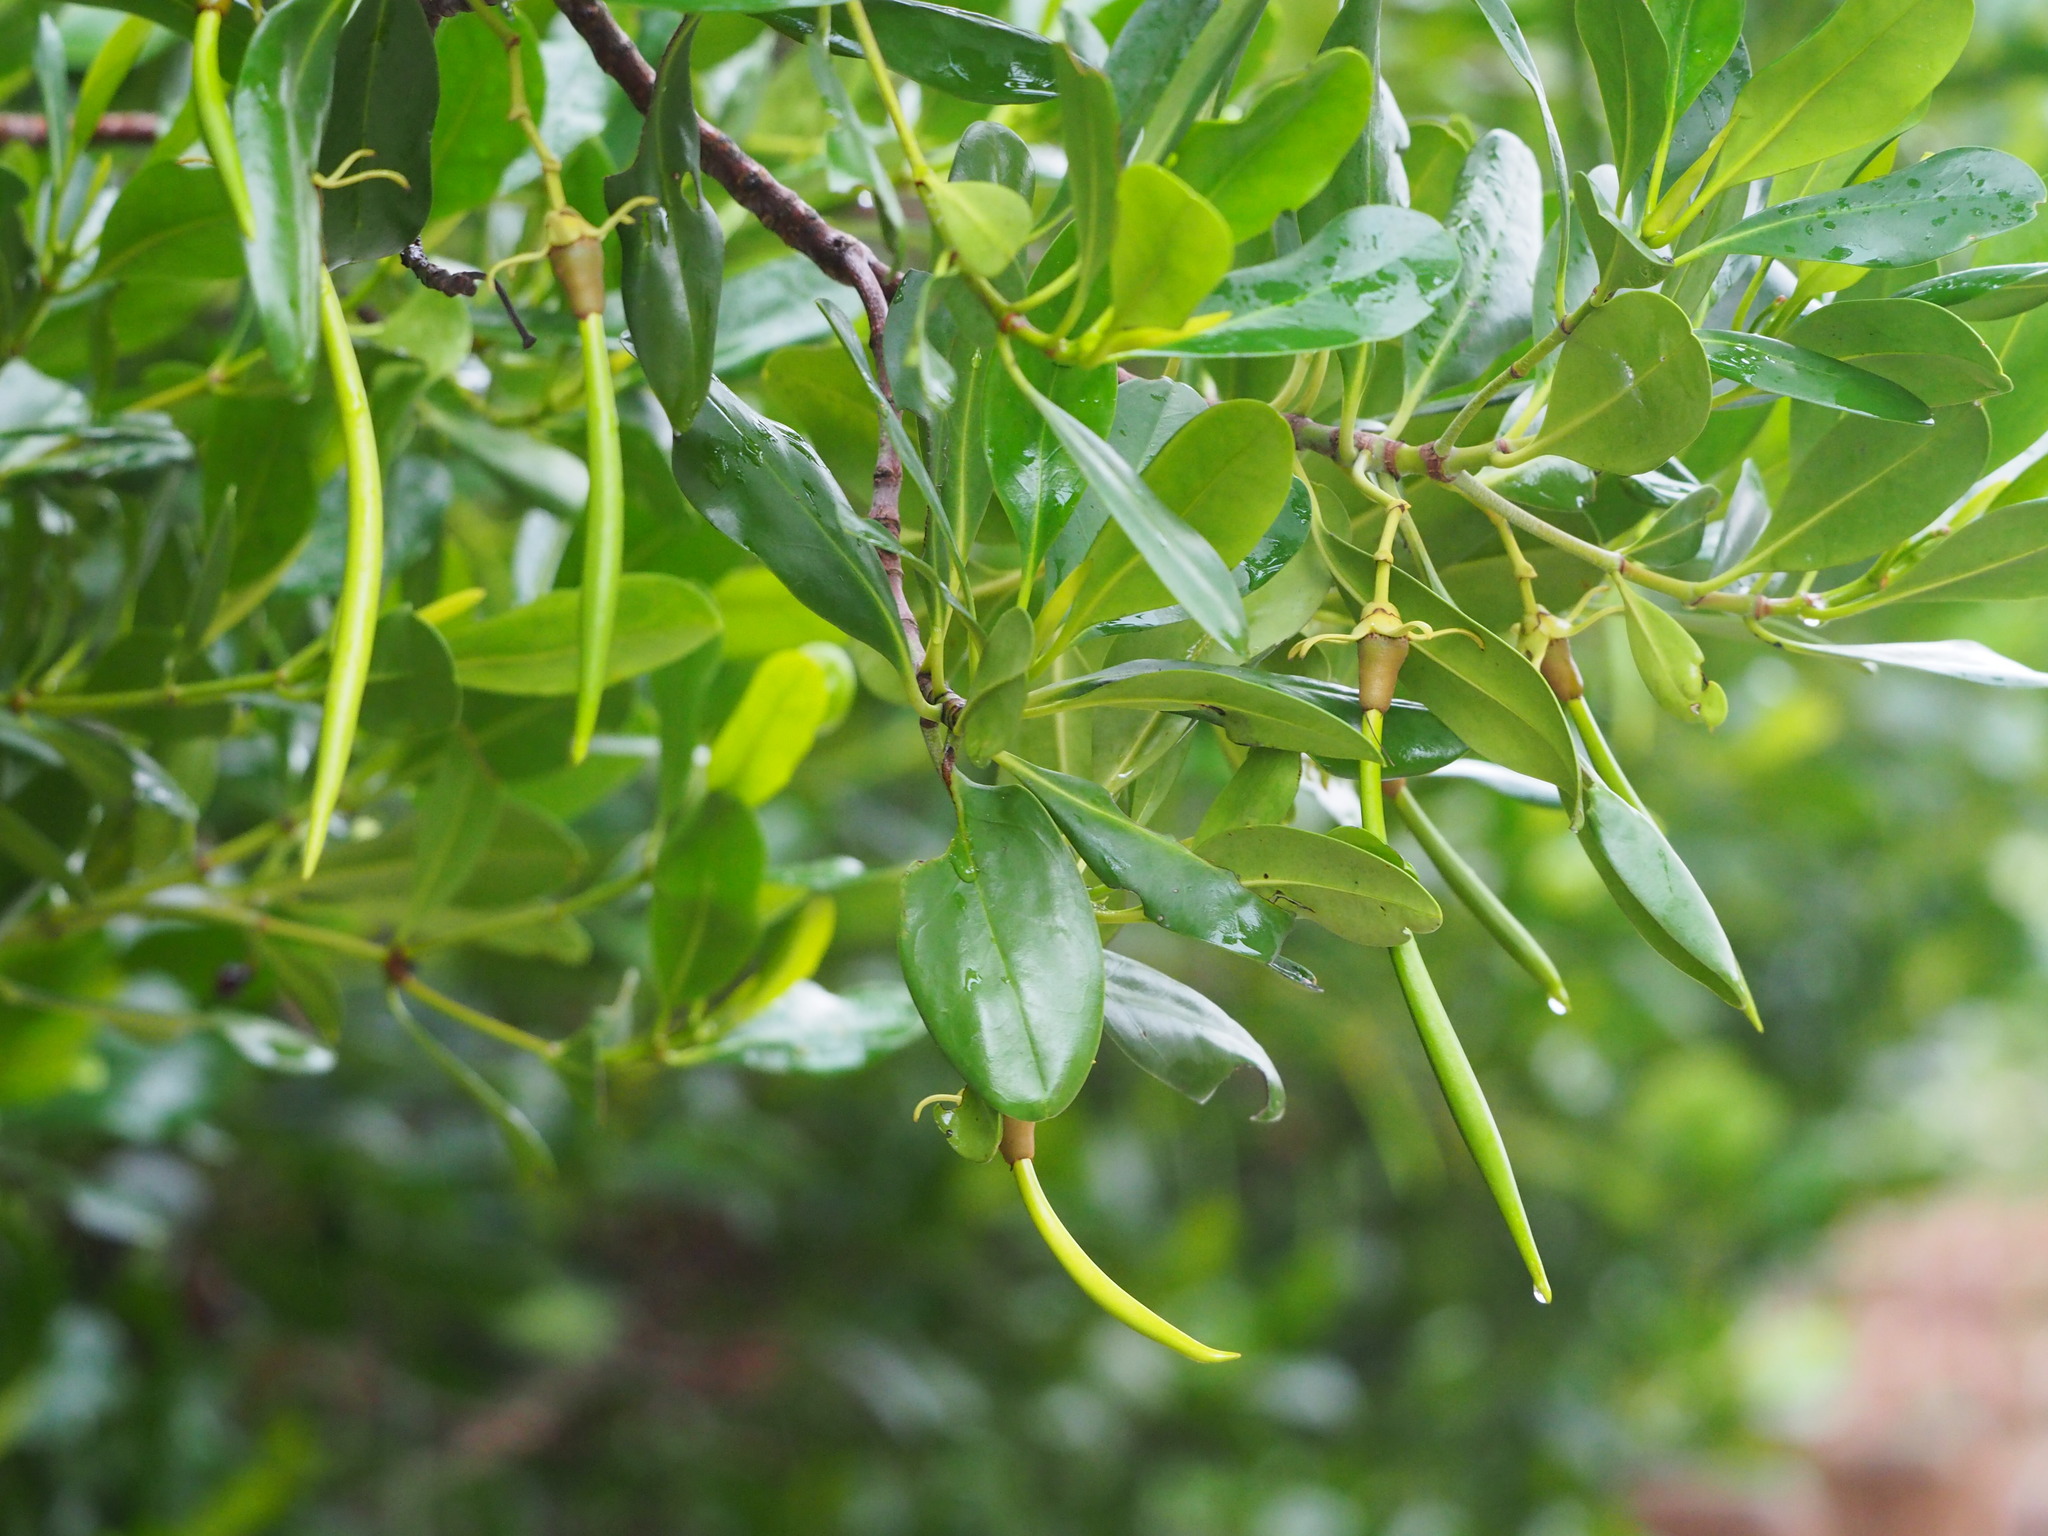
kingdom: Plantae
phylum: Tracheophyta
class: Magnoliopsida
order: Malpighiales
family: Rhizophoraceae
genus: Kandelia
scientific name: Kandelia obovata
